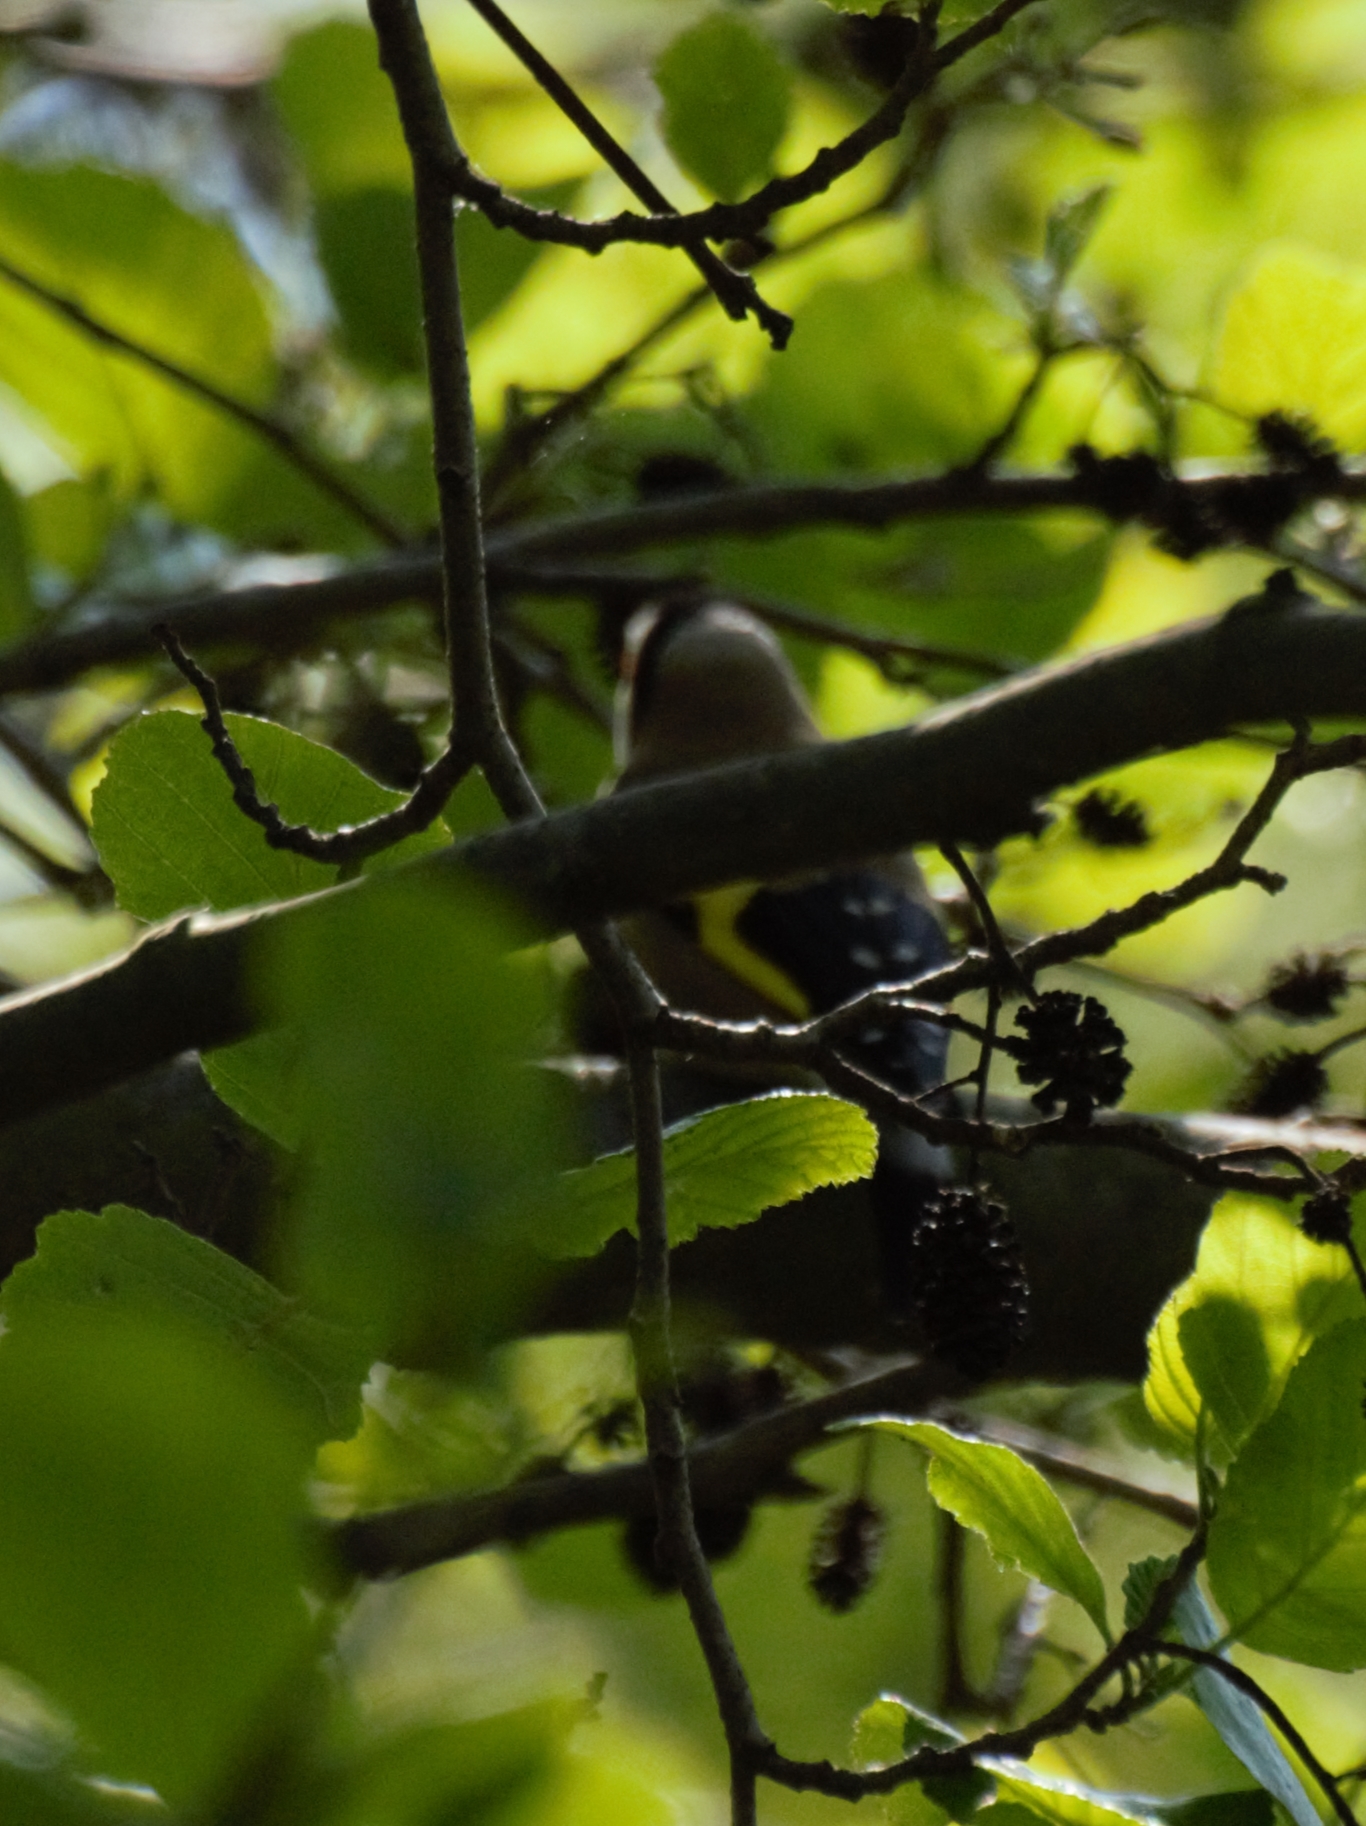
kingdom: Animalia
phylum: Chordata
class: Aves
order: Passeriformes
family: Fringillidae
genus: Carduelis
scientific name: Carduelis carduelis
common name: European goldfinch
